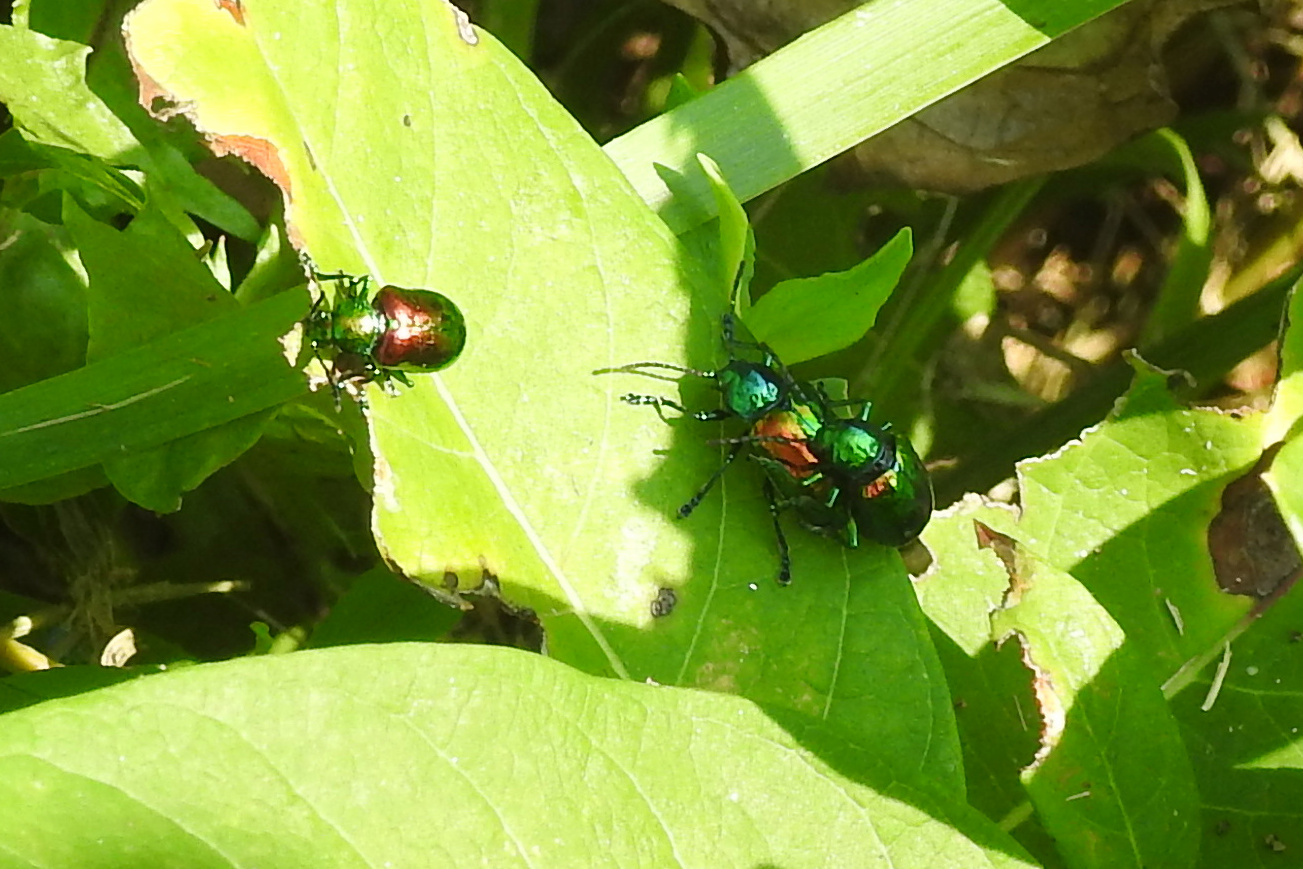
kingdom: Animalia
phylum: Arthropoda
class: Insecta
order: Coleoptera
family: Chrysomelidae
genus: Chrysochus
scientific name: Chrysochus auratus
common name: Dogbane leaf beetle
